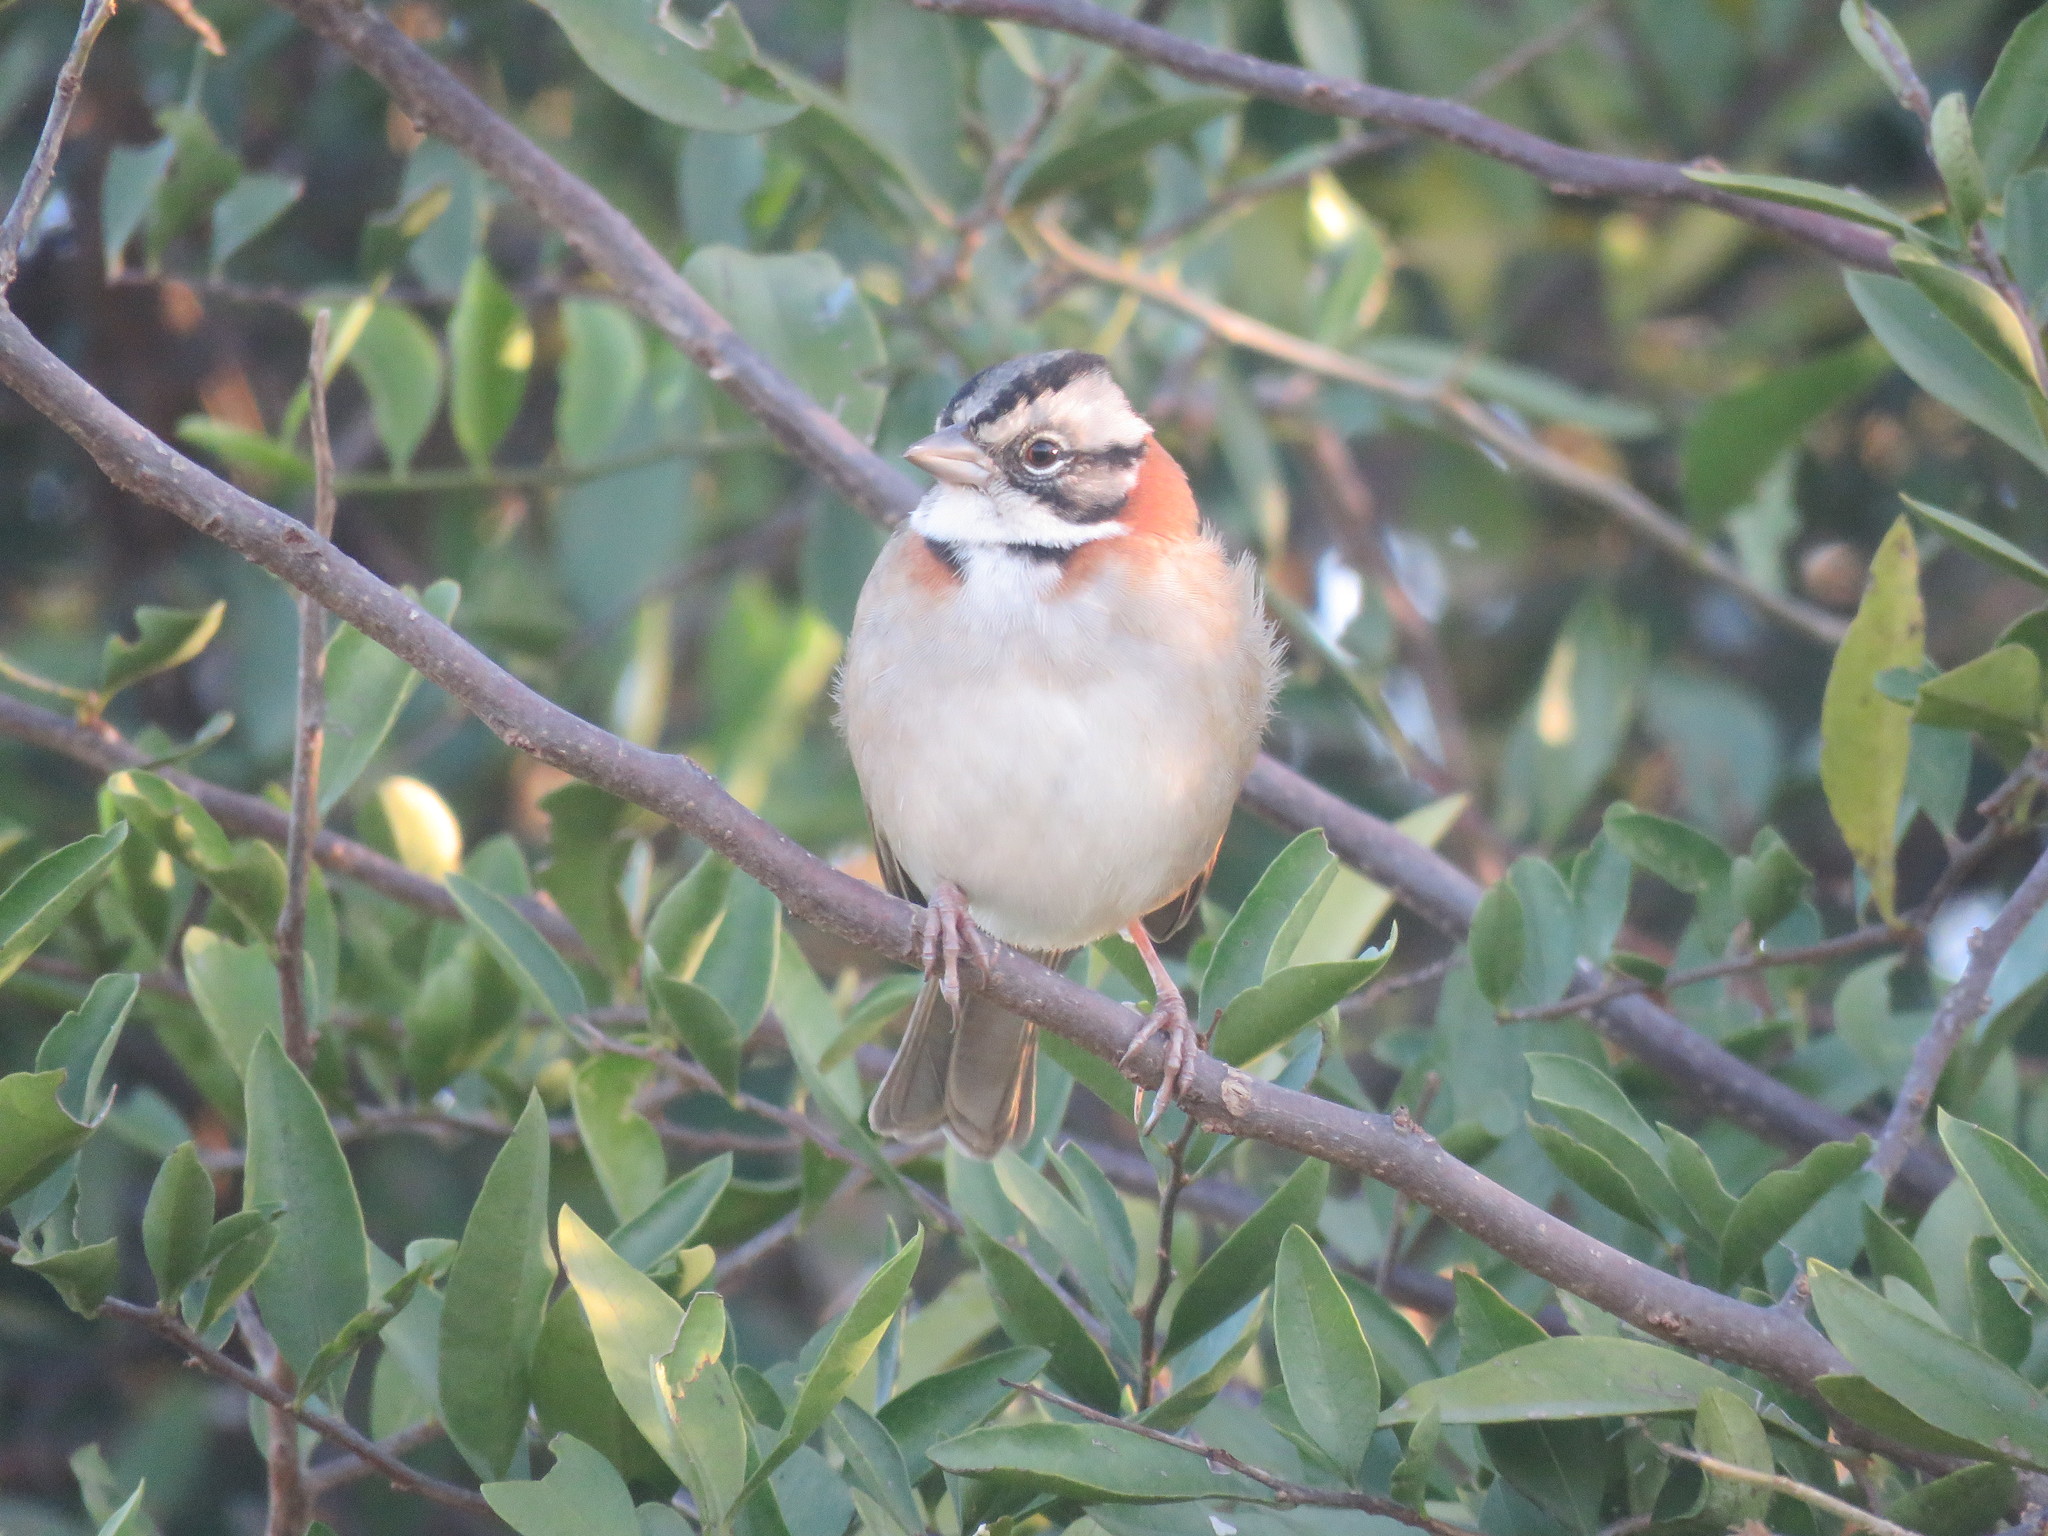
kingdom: Animalia
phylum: Chordata
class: Aves
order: Passeriformes
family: Passerellidae
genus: Zonotrichia
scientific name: Zonotrichia capensis
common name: Rufous-collared sparrow
